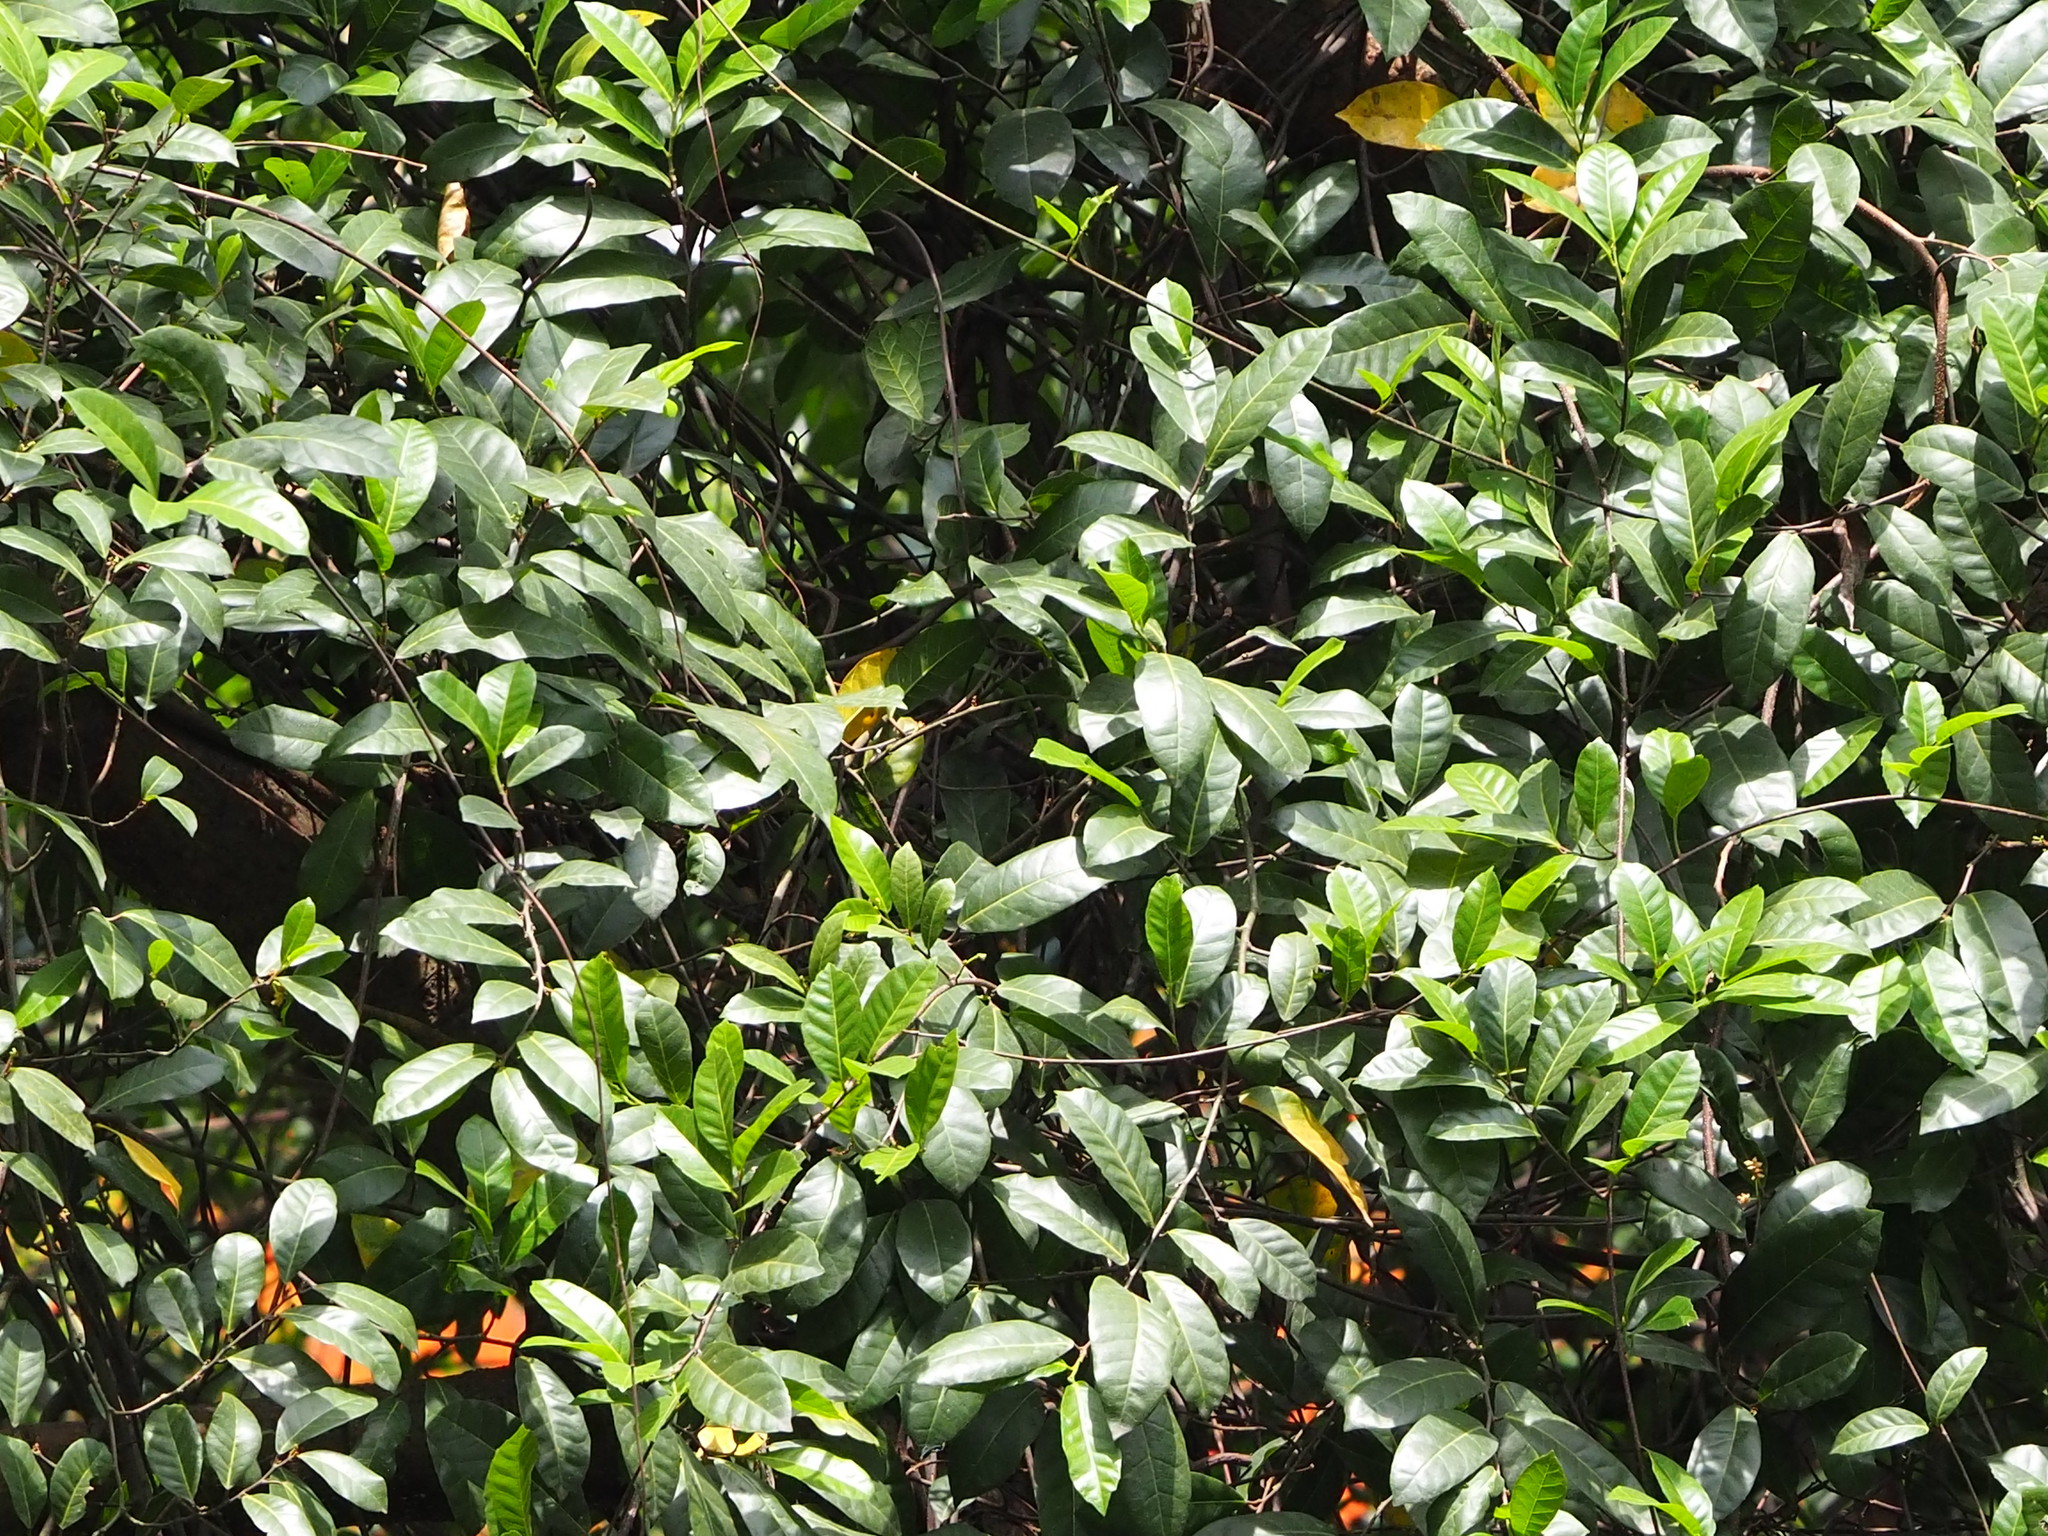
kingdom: Plantae
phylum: Tracheophyta
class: Magnoliopsida
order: Rosales
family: Moraceae
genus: Malaisia
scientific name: Malaisia scandens
